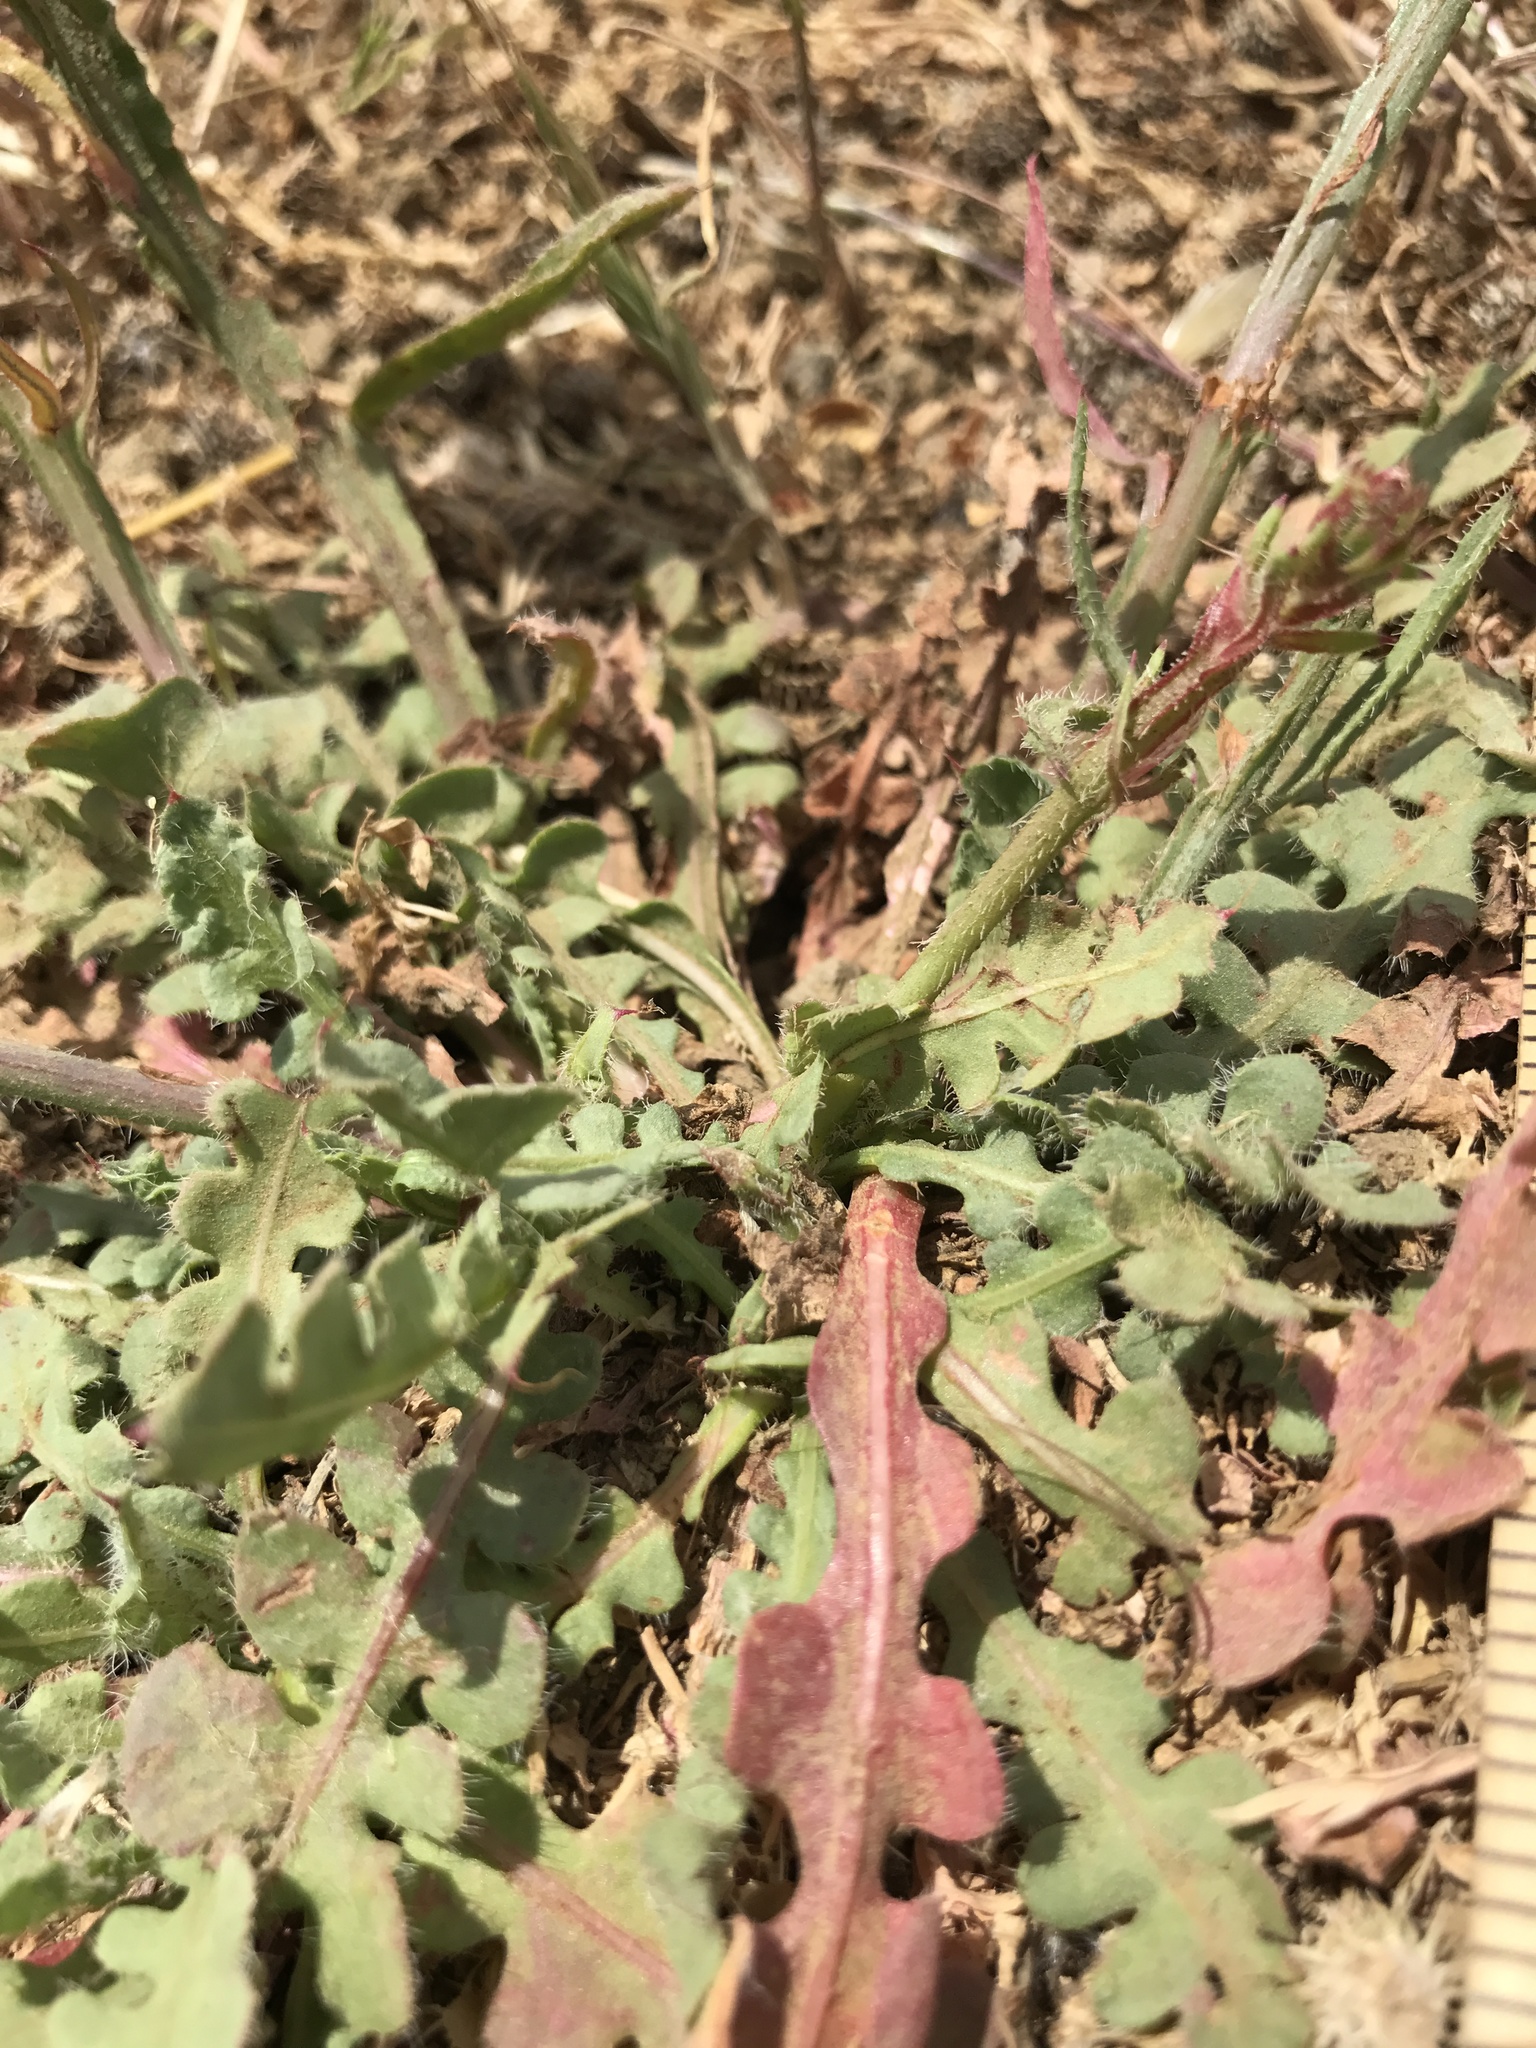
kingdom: Plantae
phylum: Tracheophyta
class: Magnoliopsida
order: Caryophyllales
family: Plumbaginaceae
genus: Limonium
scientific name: Limonium sinuatum
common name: Statice
